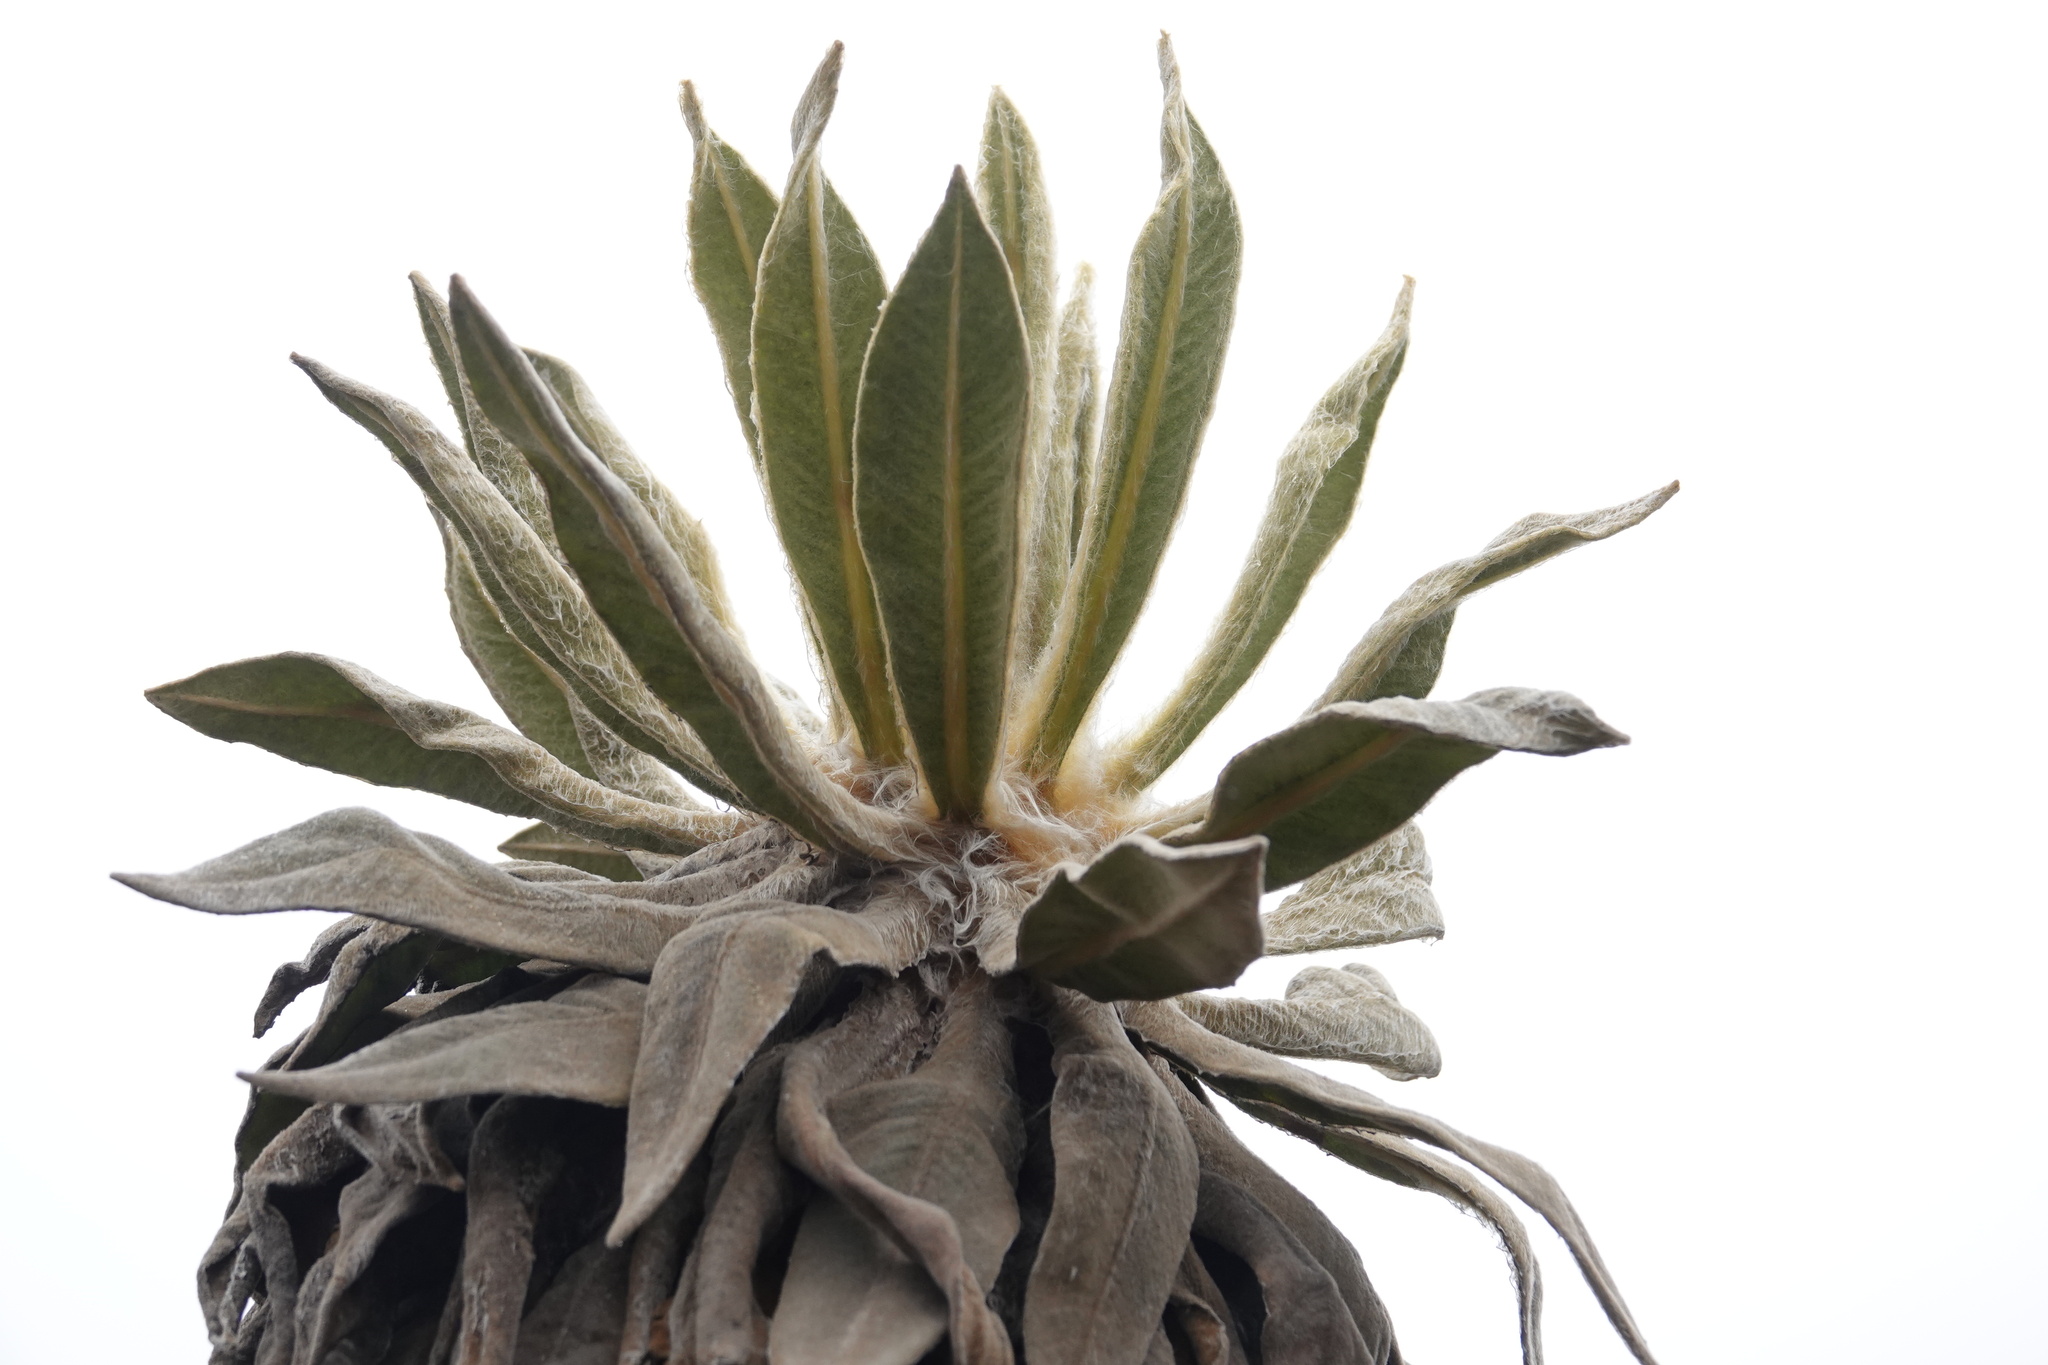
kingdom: Plantae
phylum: Tracheophyta
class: Magnoliopsida
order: Asterales
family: Asteraceae
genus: Espeletia
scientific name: Espeletia hartwegiana
